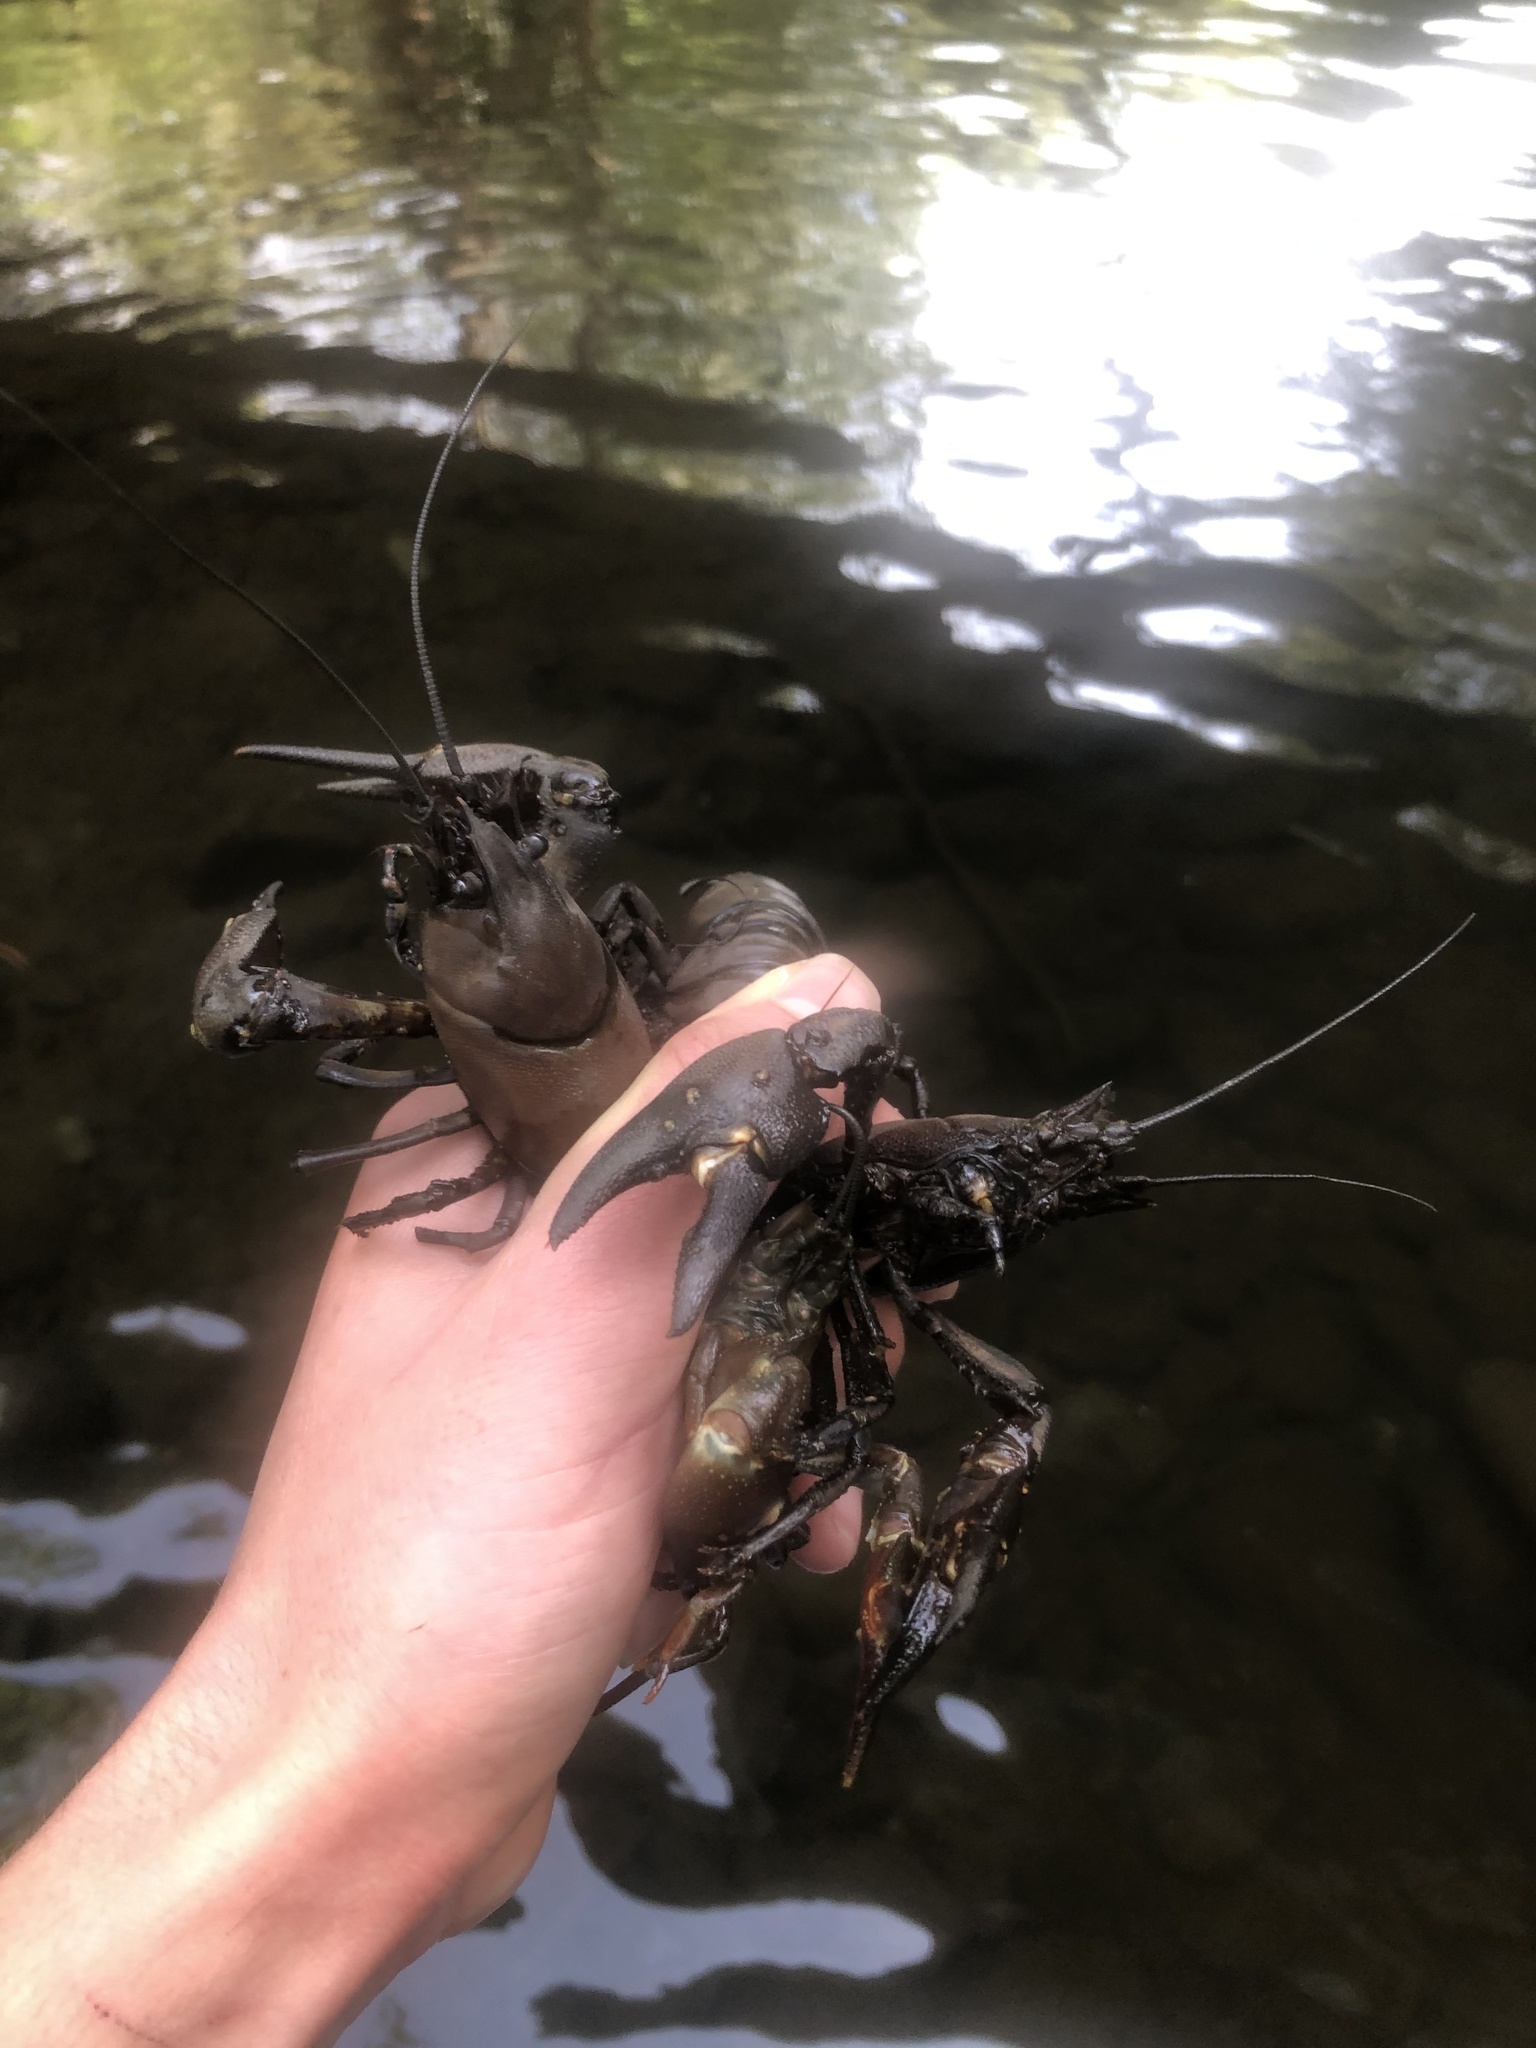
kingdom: Animalia
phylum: Arthropoda
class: Malacostraca
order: Decapoda
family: Astacidae
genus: Pacifastacus
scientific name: Pacifastacus leniusculus
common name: Signal crayfish
